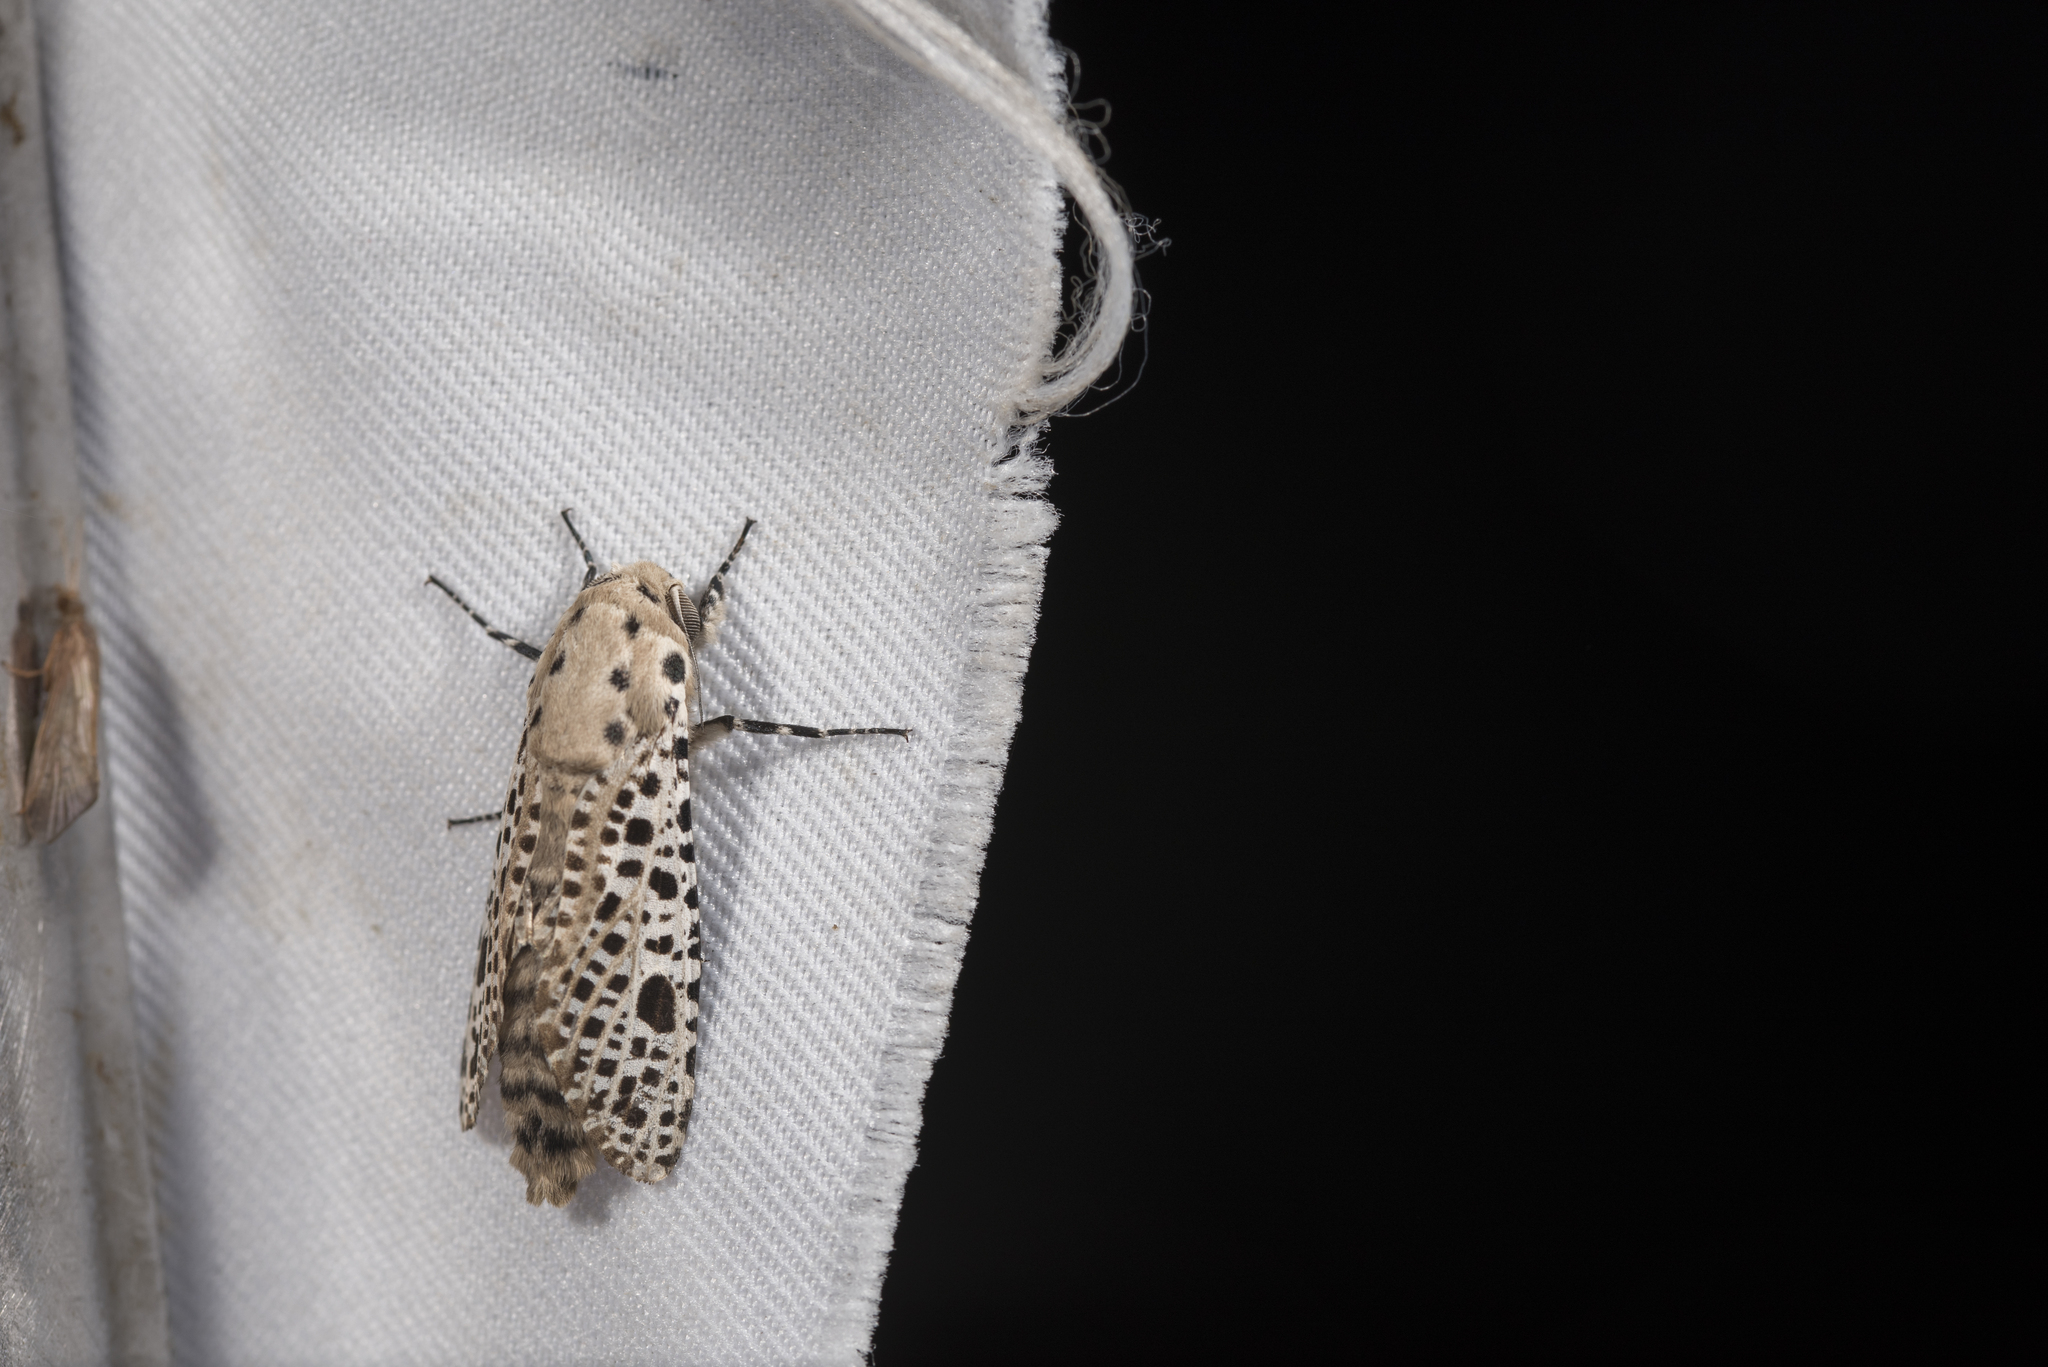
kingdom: Animalia
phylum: Arthropoda
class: Insecta
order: Lepidoptera
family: Cossidae
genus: Rapdalus
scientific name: Rapdalus pardicolor
